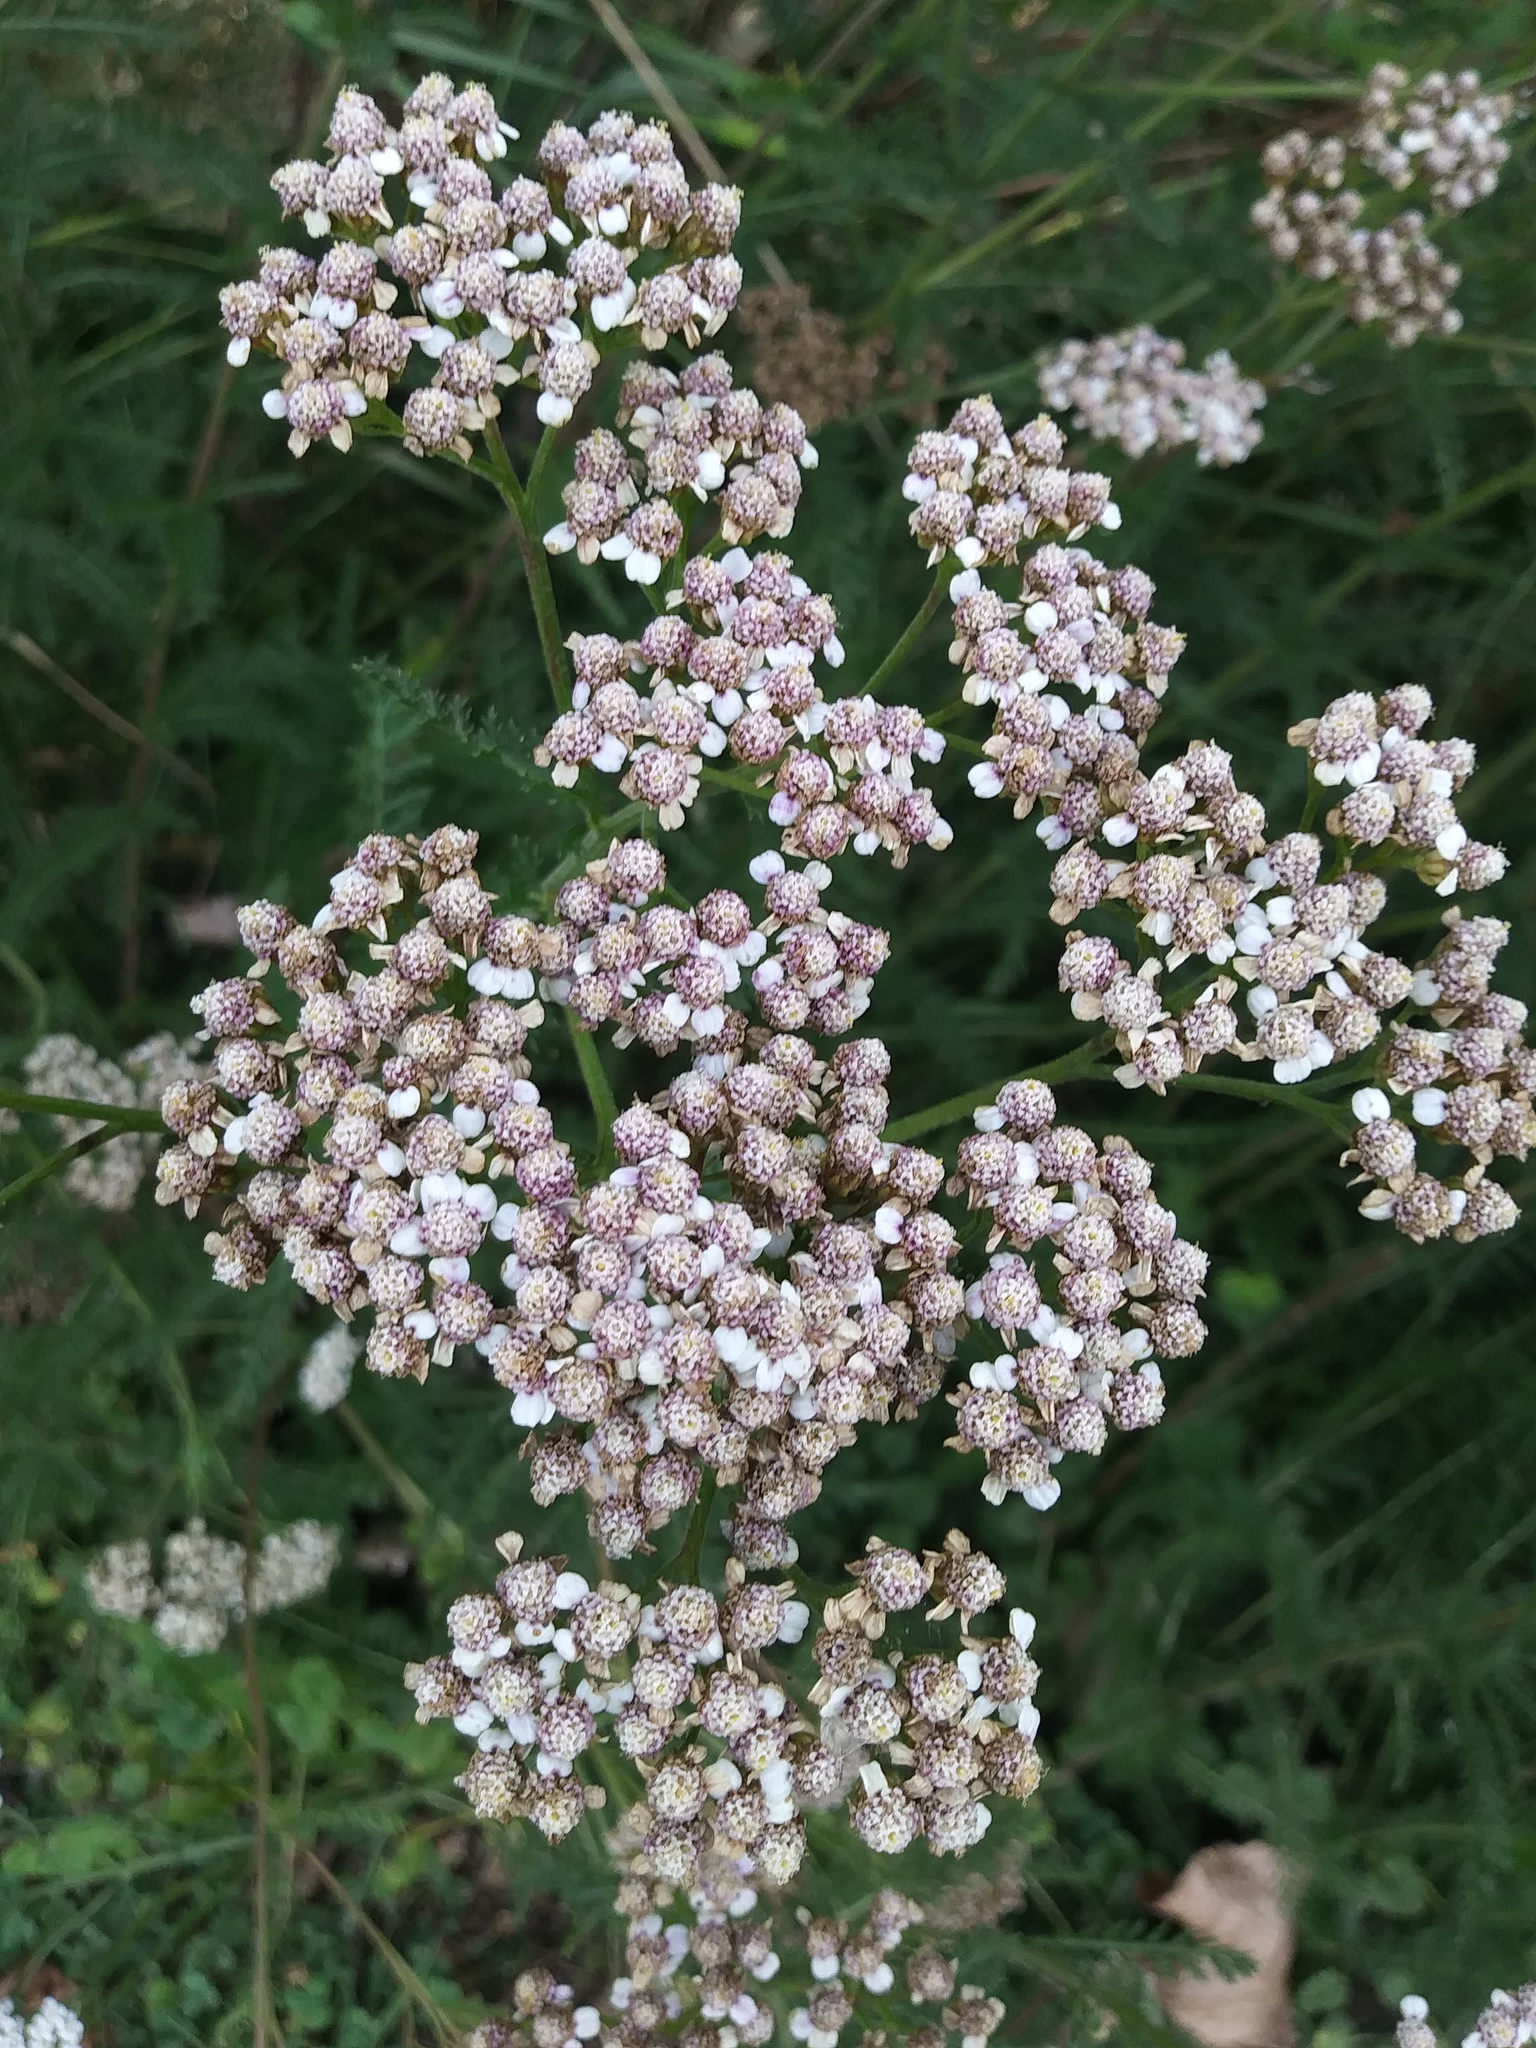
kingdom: Plantae
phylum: Tracheophyta
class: Magnoliopsida
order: Asterales
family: Asteraceae
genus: Achillea
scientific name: Achillea millefolium
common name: Yarrow
